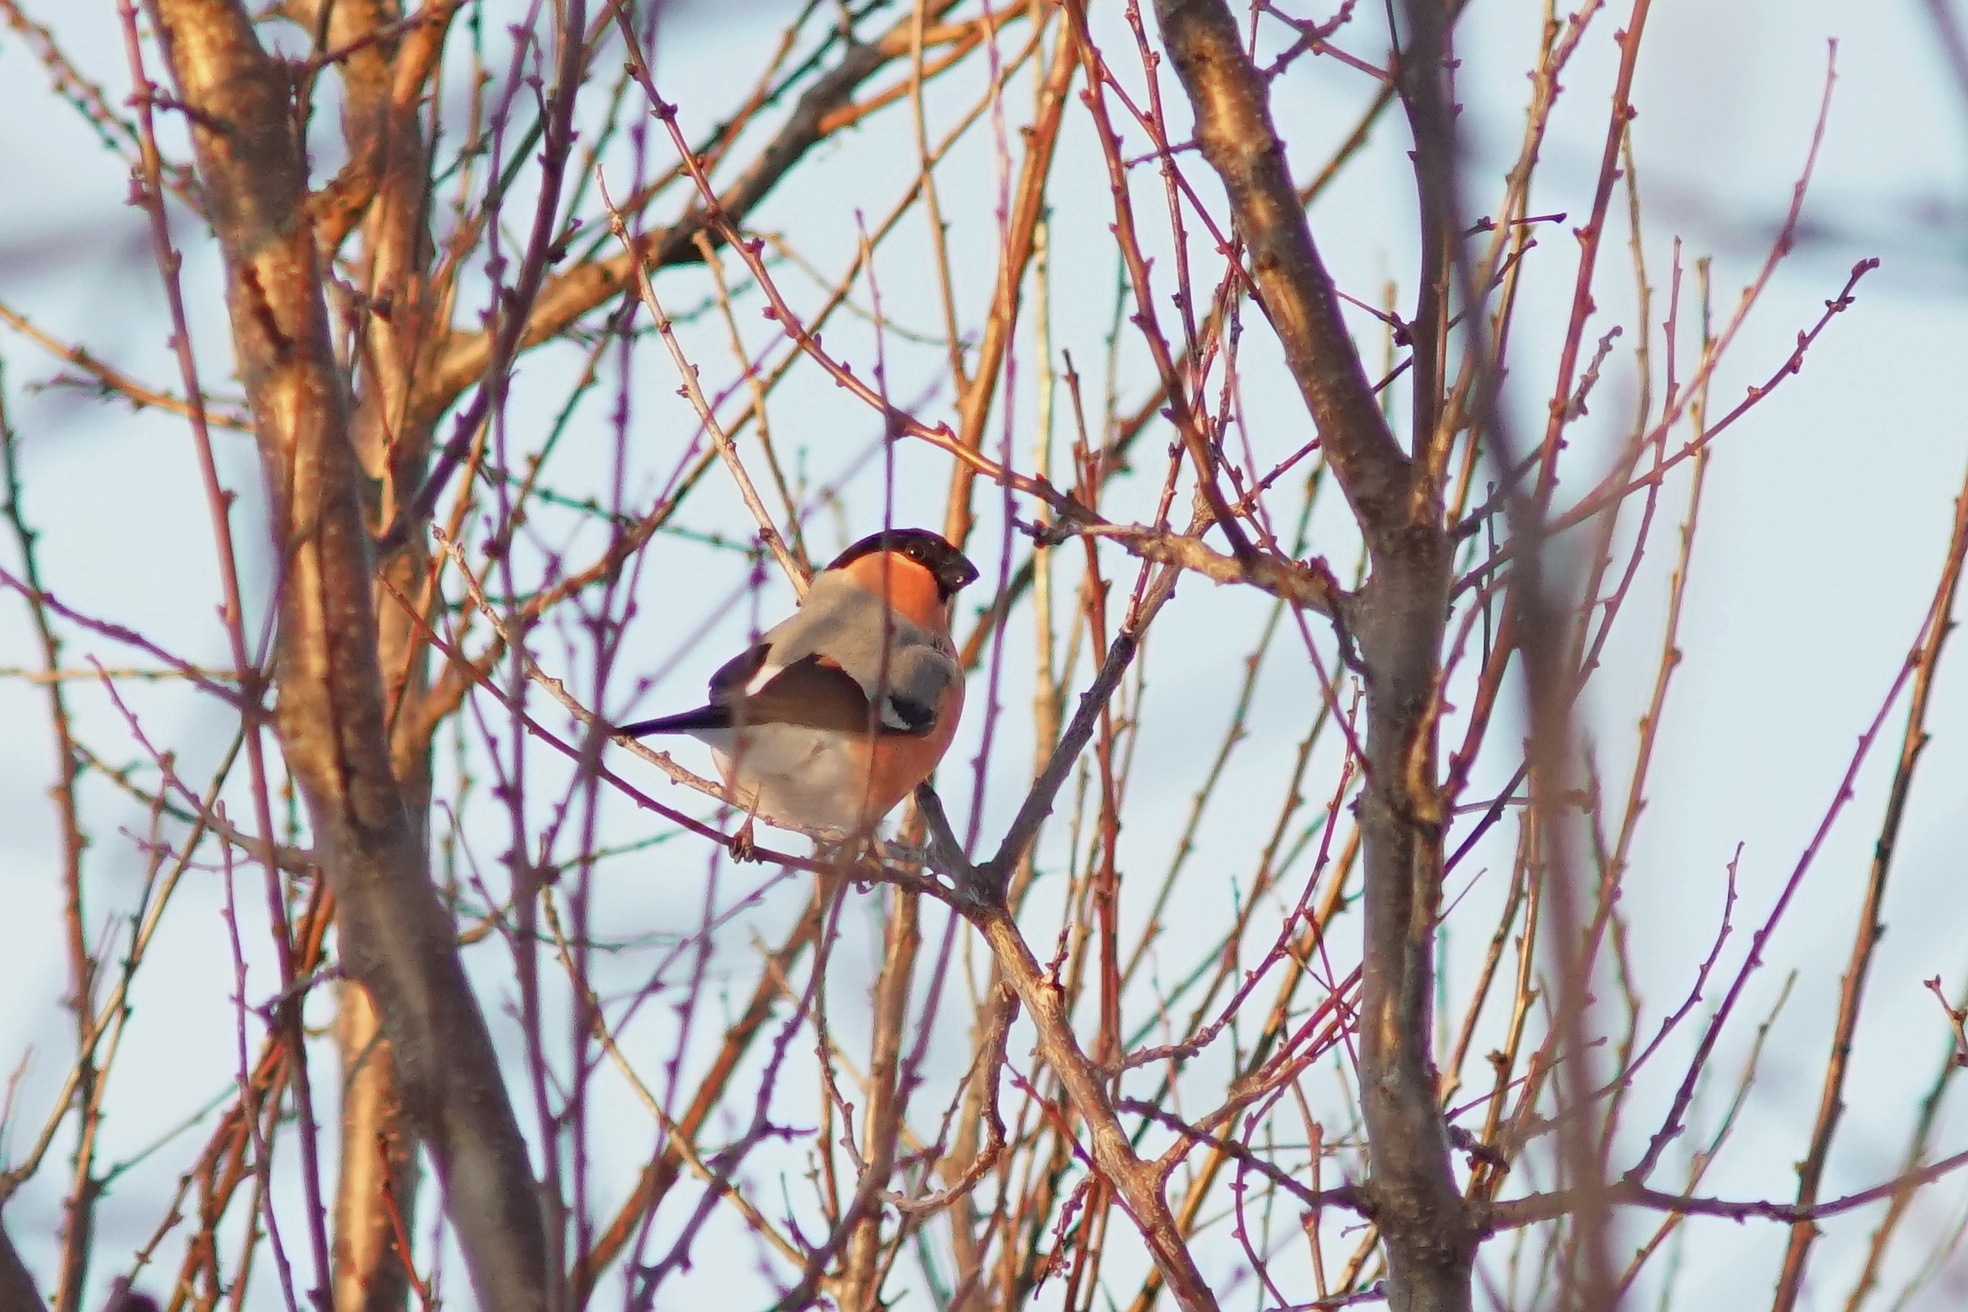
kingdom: Animalia
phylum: Chordata
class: Aves
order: Passeriformes
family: Fringillidae
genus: Pyrrhula
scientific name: Pyrrhula pyrrhula
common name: Eurasian bullfinch
